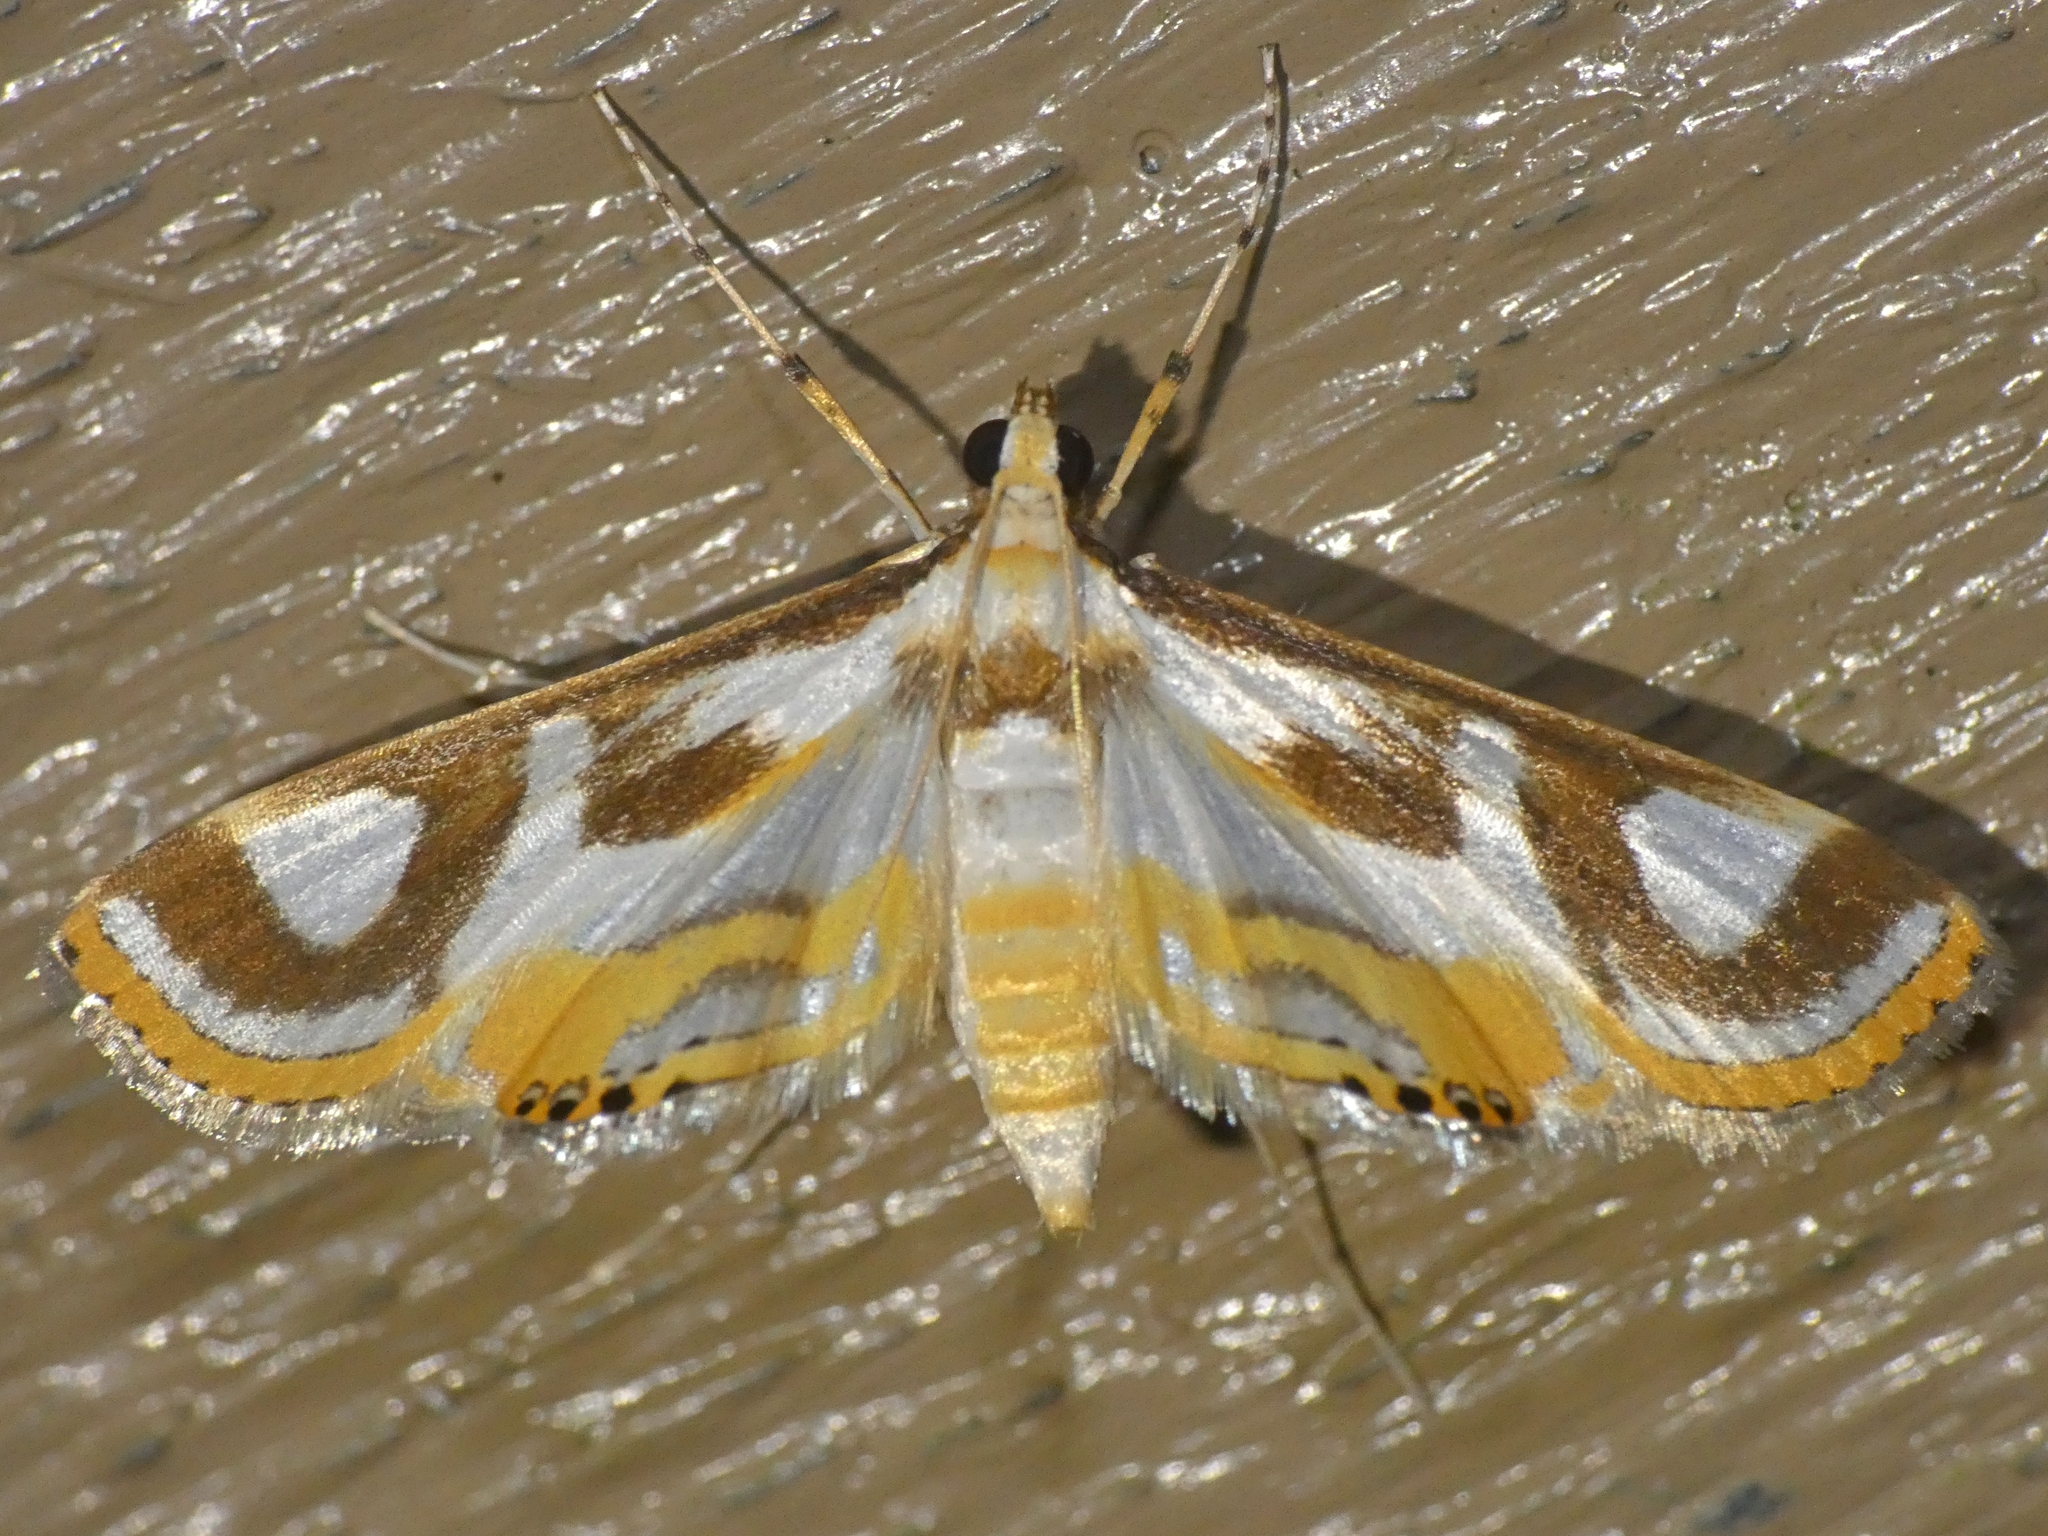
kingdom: Animalia
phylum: Arthropoda
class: Insecta
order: Lepidoptera
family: Crambidae
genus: Theila
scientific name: Theila siennata
